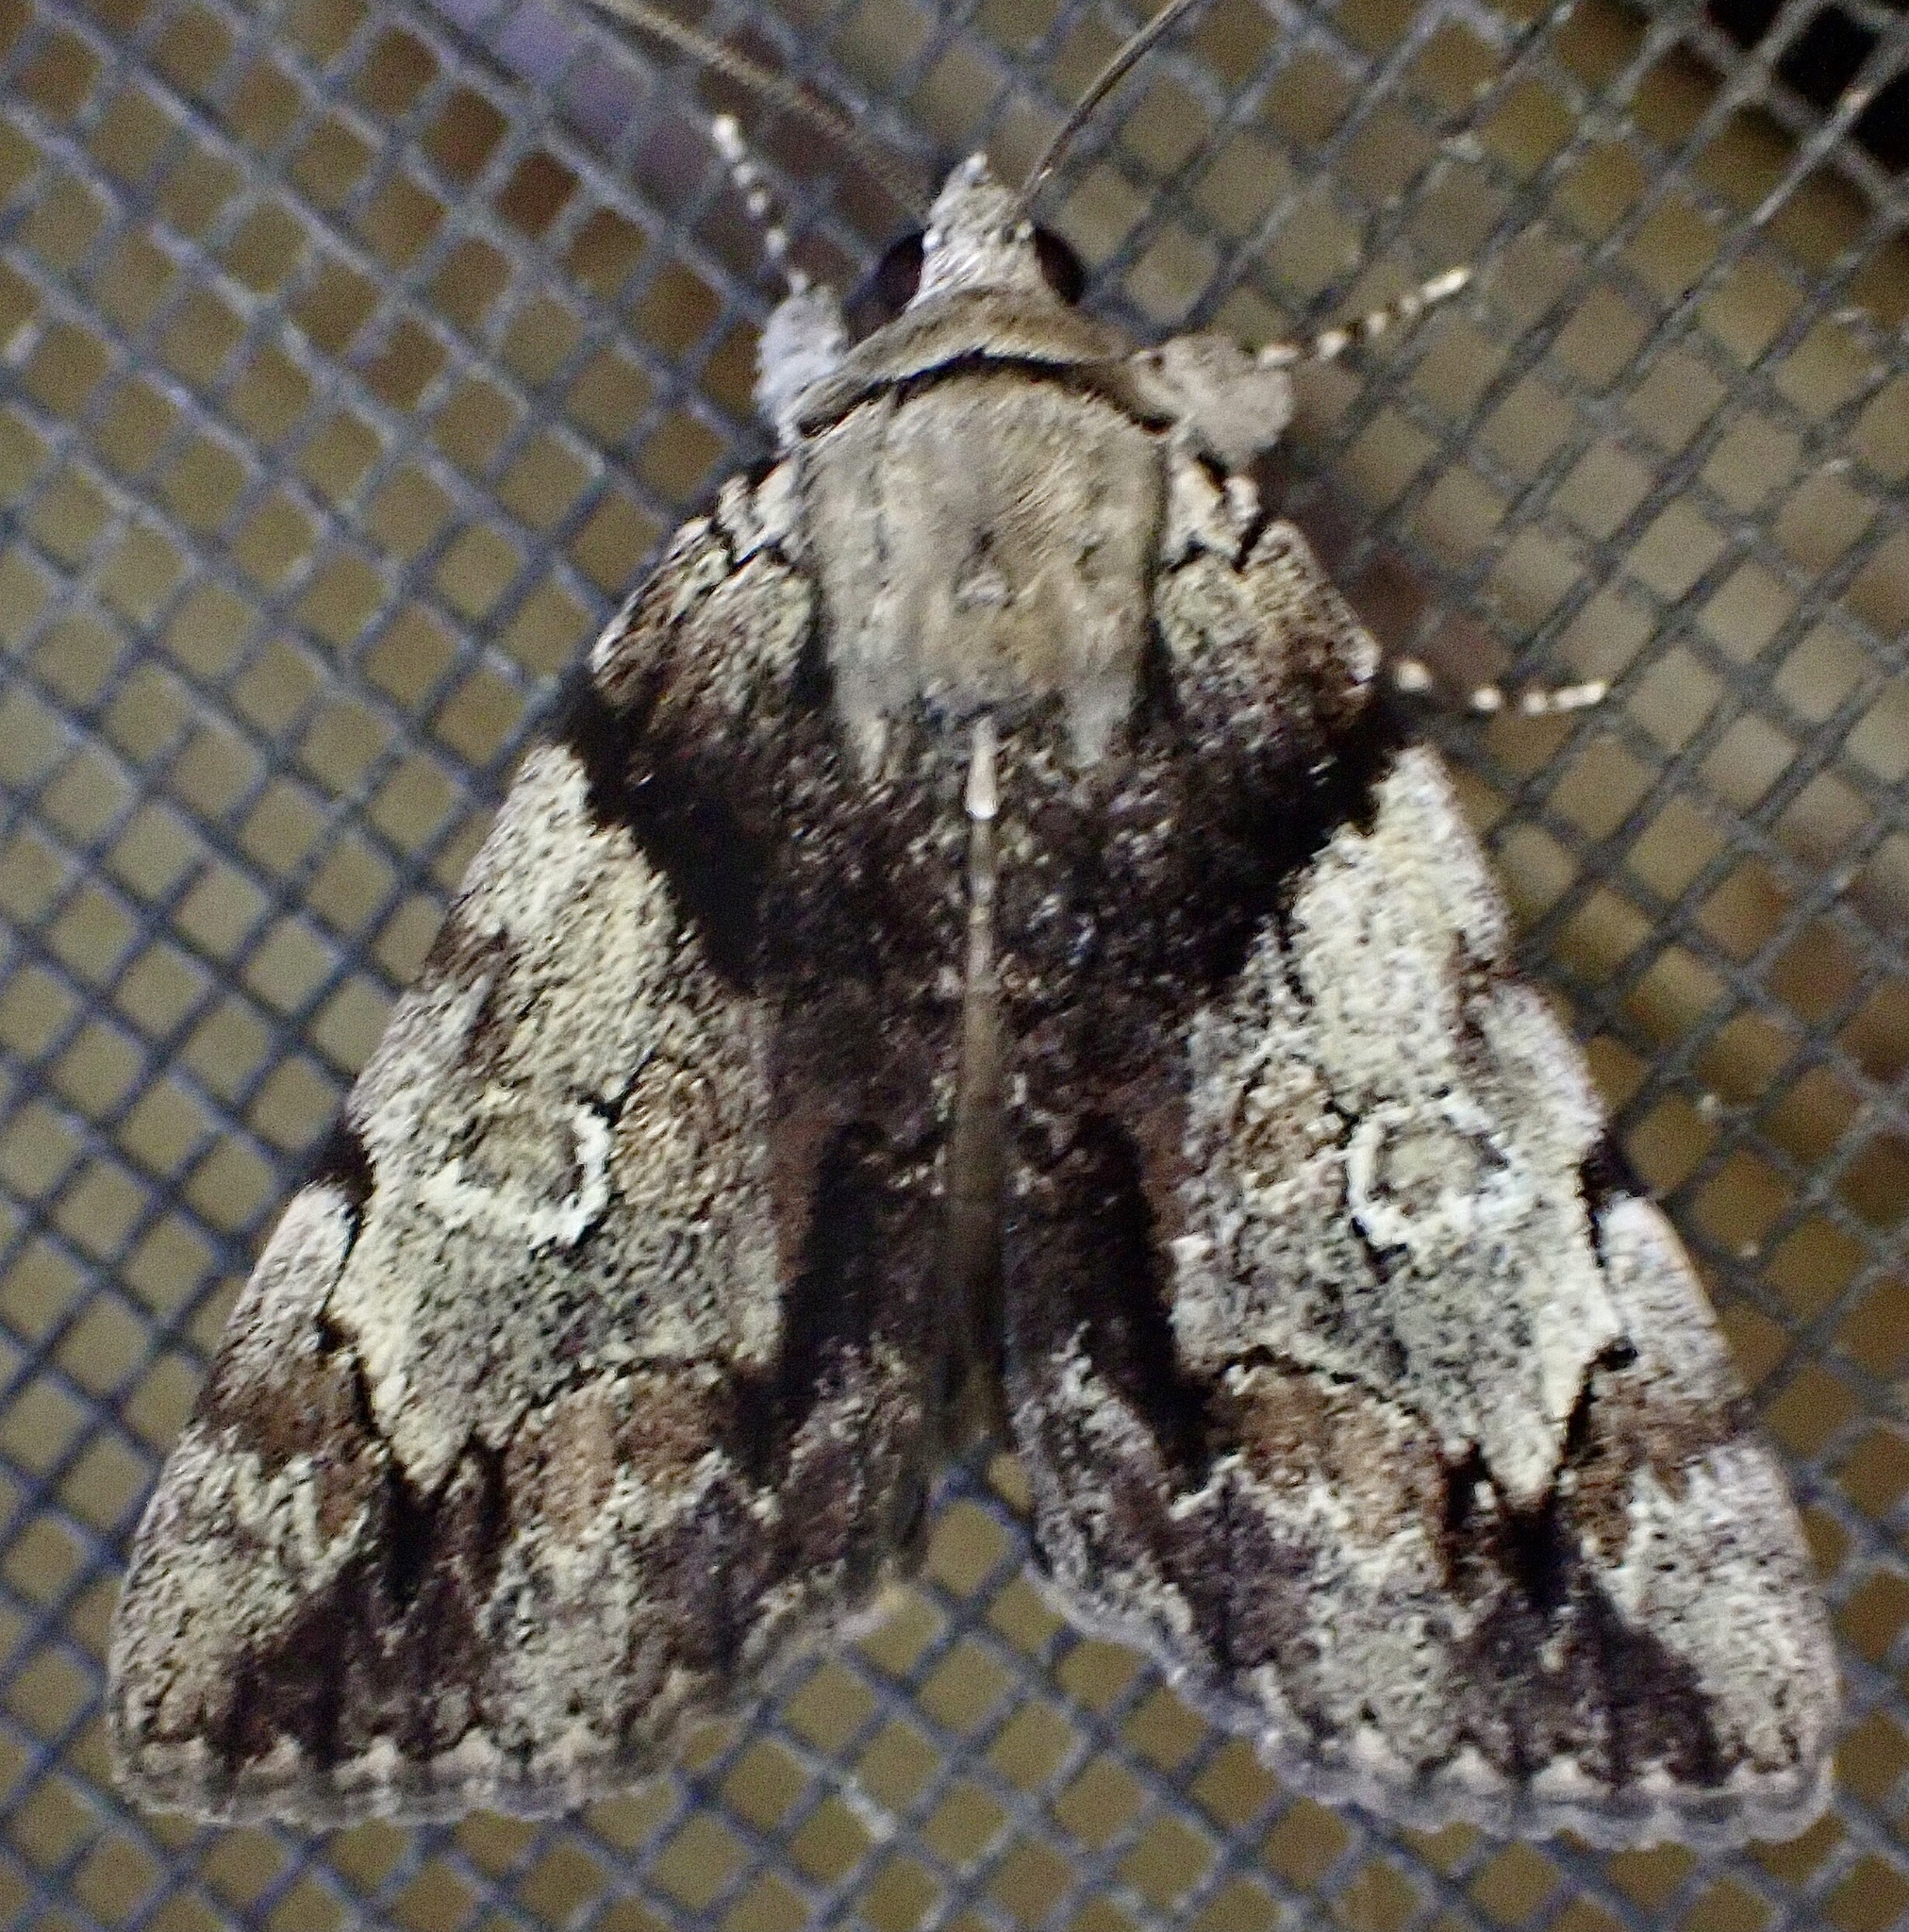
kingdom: Animalia
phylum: Arthropoda
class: Insecta
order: Lepidoptera
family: Erebidae
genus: Catocala
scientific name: Catocala crataegi
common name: Hawthorn underwing moth
